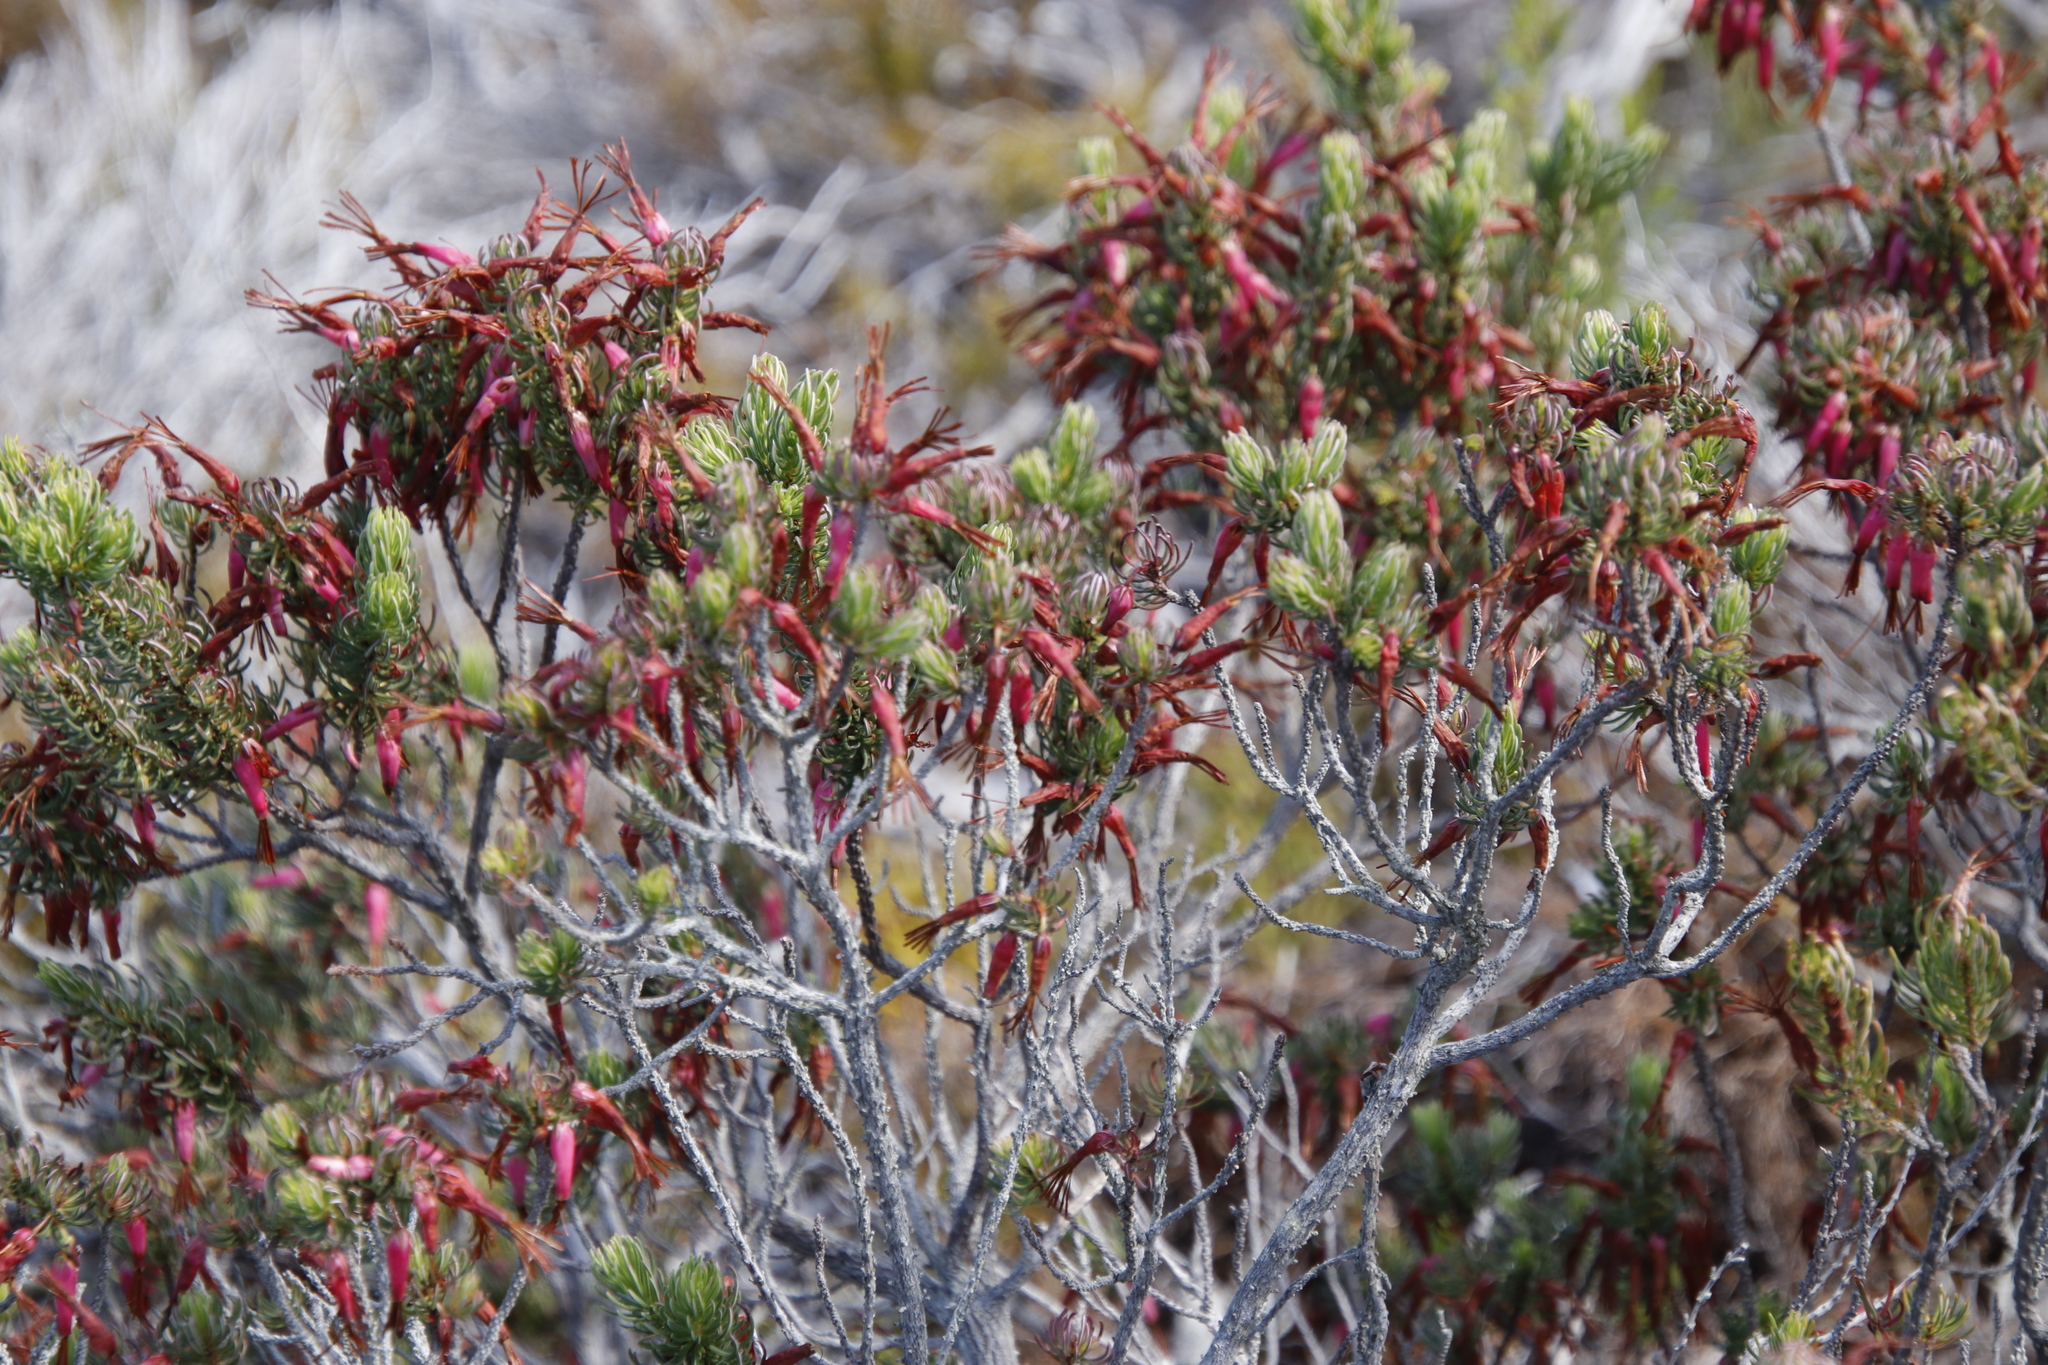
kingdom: Plantae
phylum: Tracheophyta
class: Magnoliopsida
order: Ericales
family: Ericaceae
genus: Erica
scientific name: Erica plukenetii
